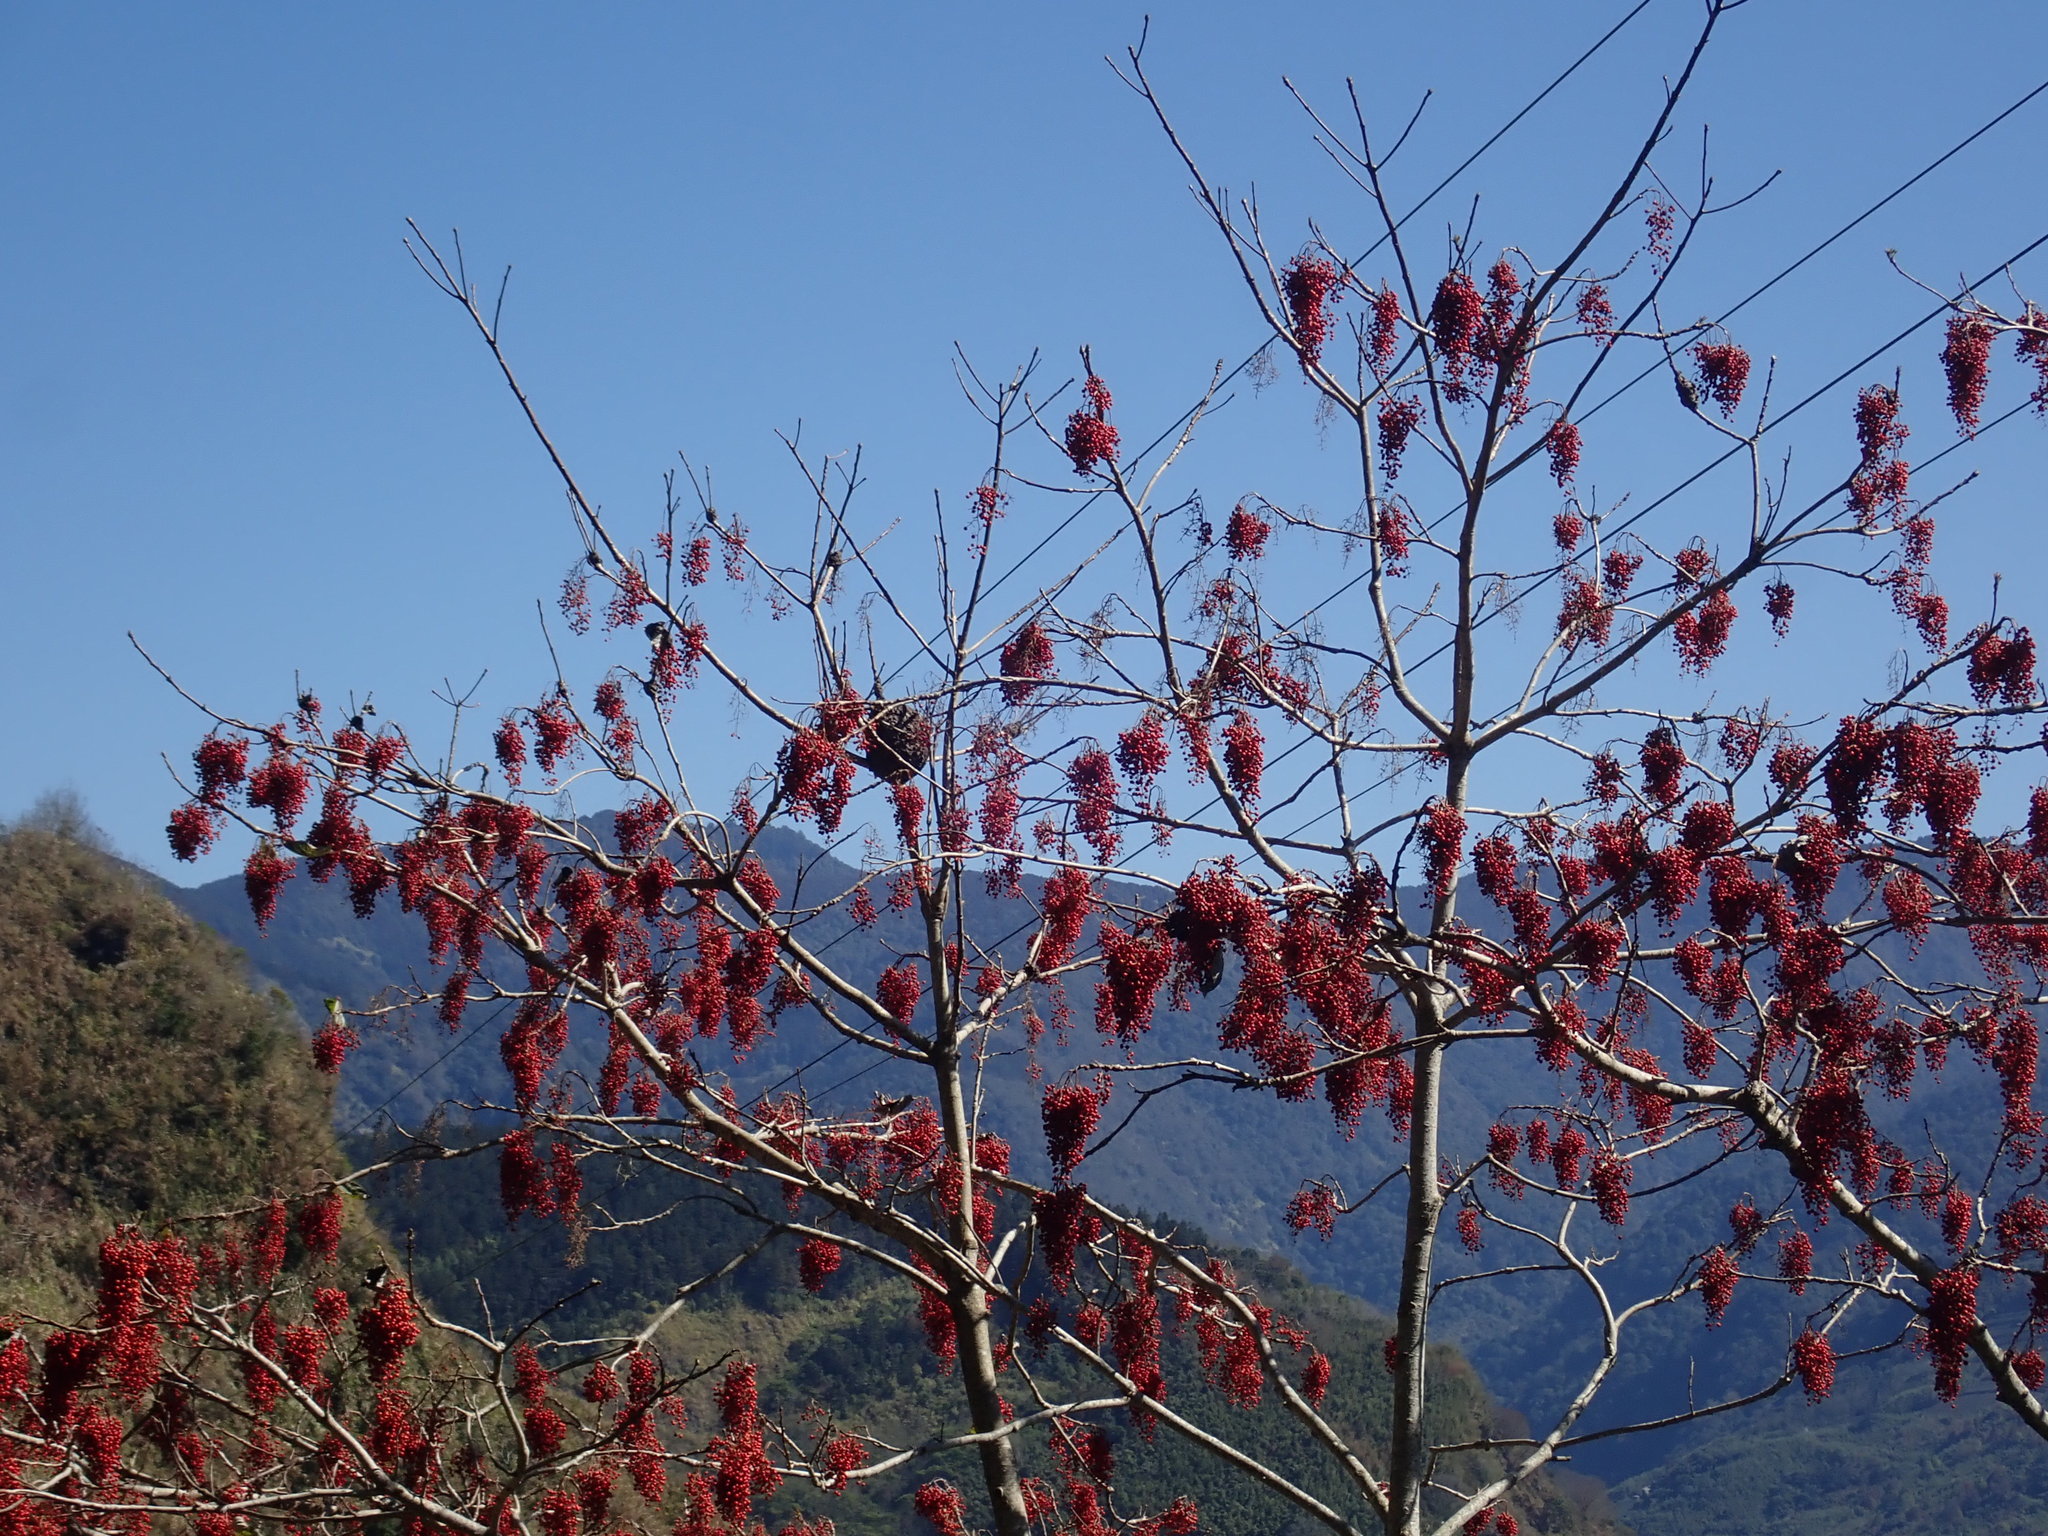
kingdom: Plantae
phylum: Tracheophyta
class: Magnoliopsida
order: Malpighiales
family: Salicaceae
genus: Idesia
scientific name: Idesia polycarpa
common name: Idesia tree
